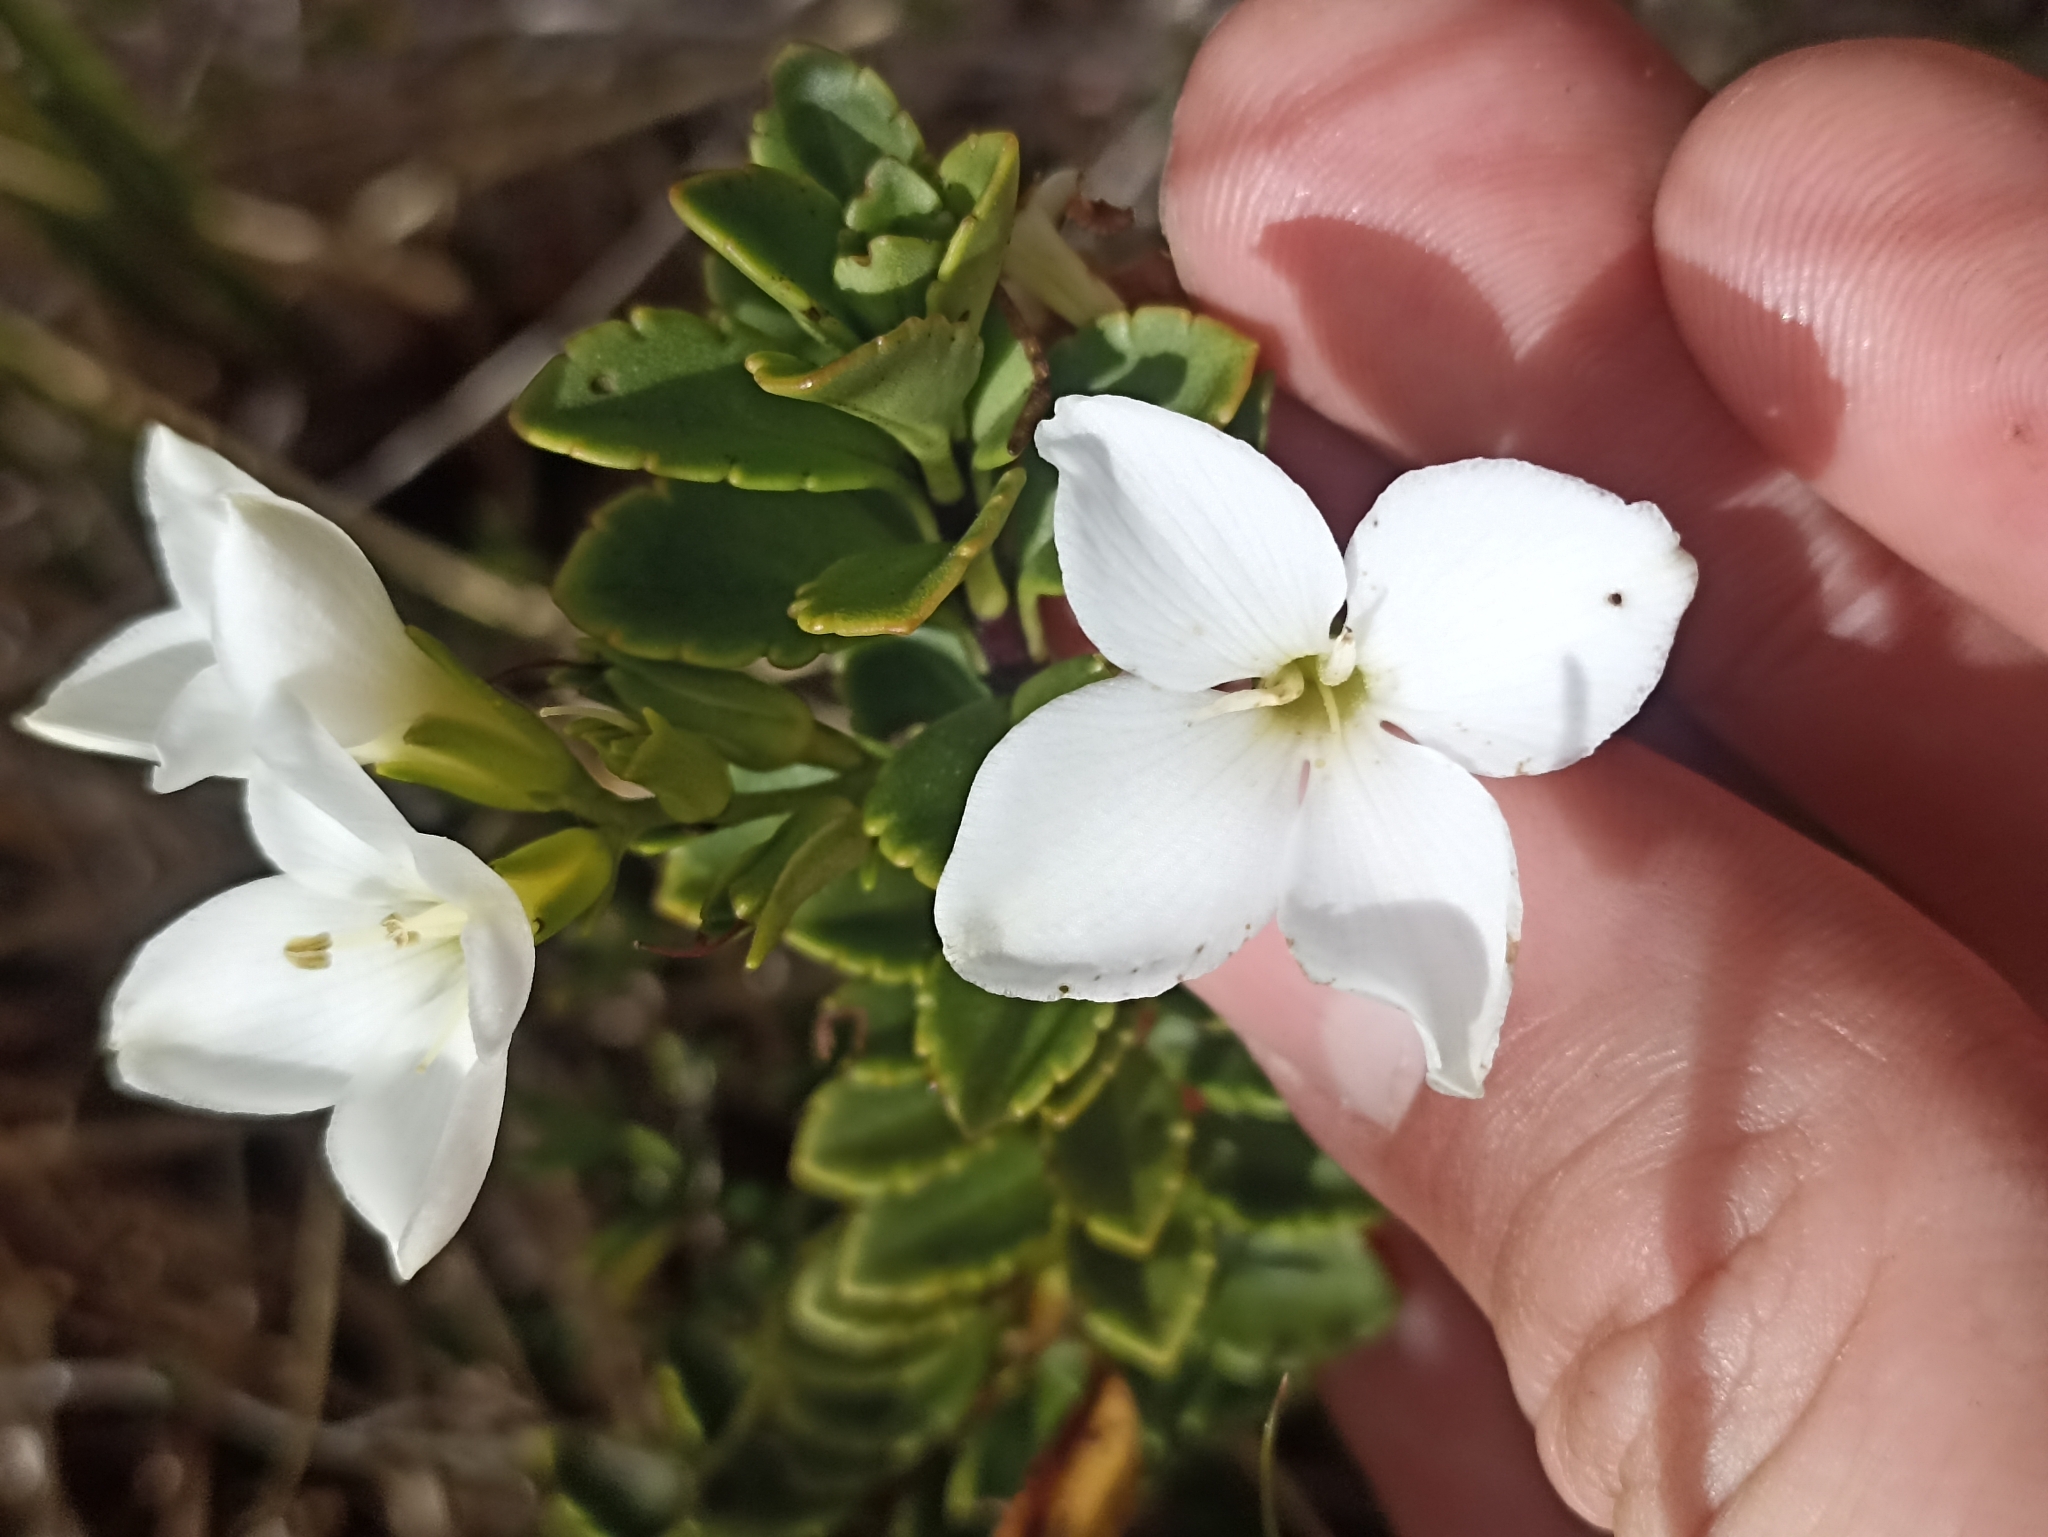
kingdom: Plantae
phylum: Tracheophyta
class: Magnoliopsida
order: Lamiales
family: Plantaginaceae
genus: Veronica
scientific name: Veronica macrantha
